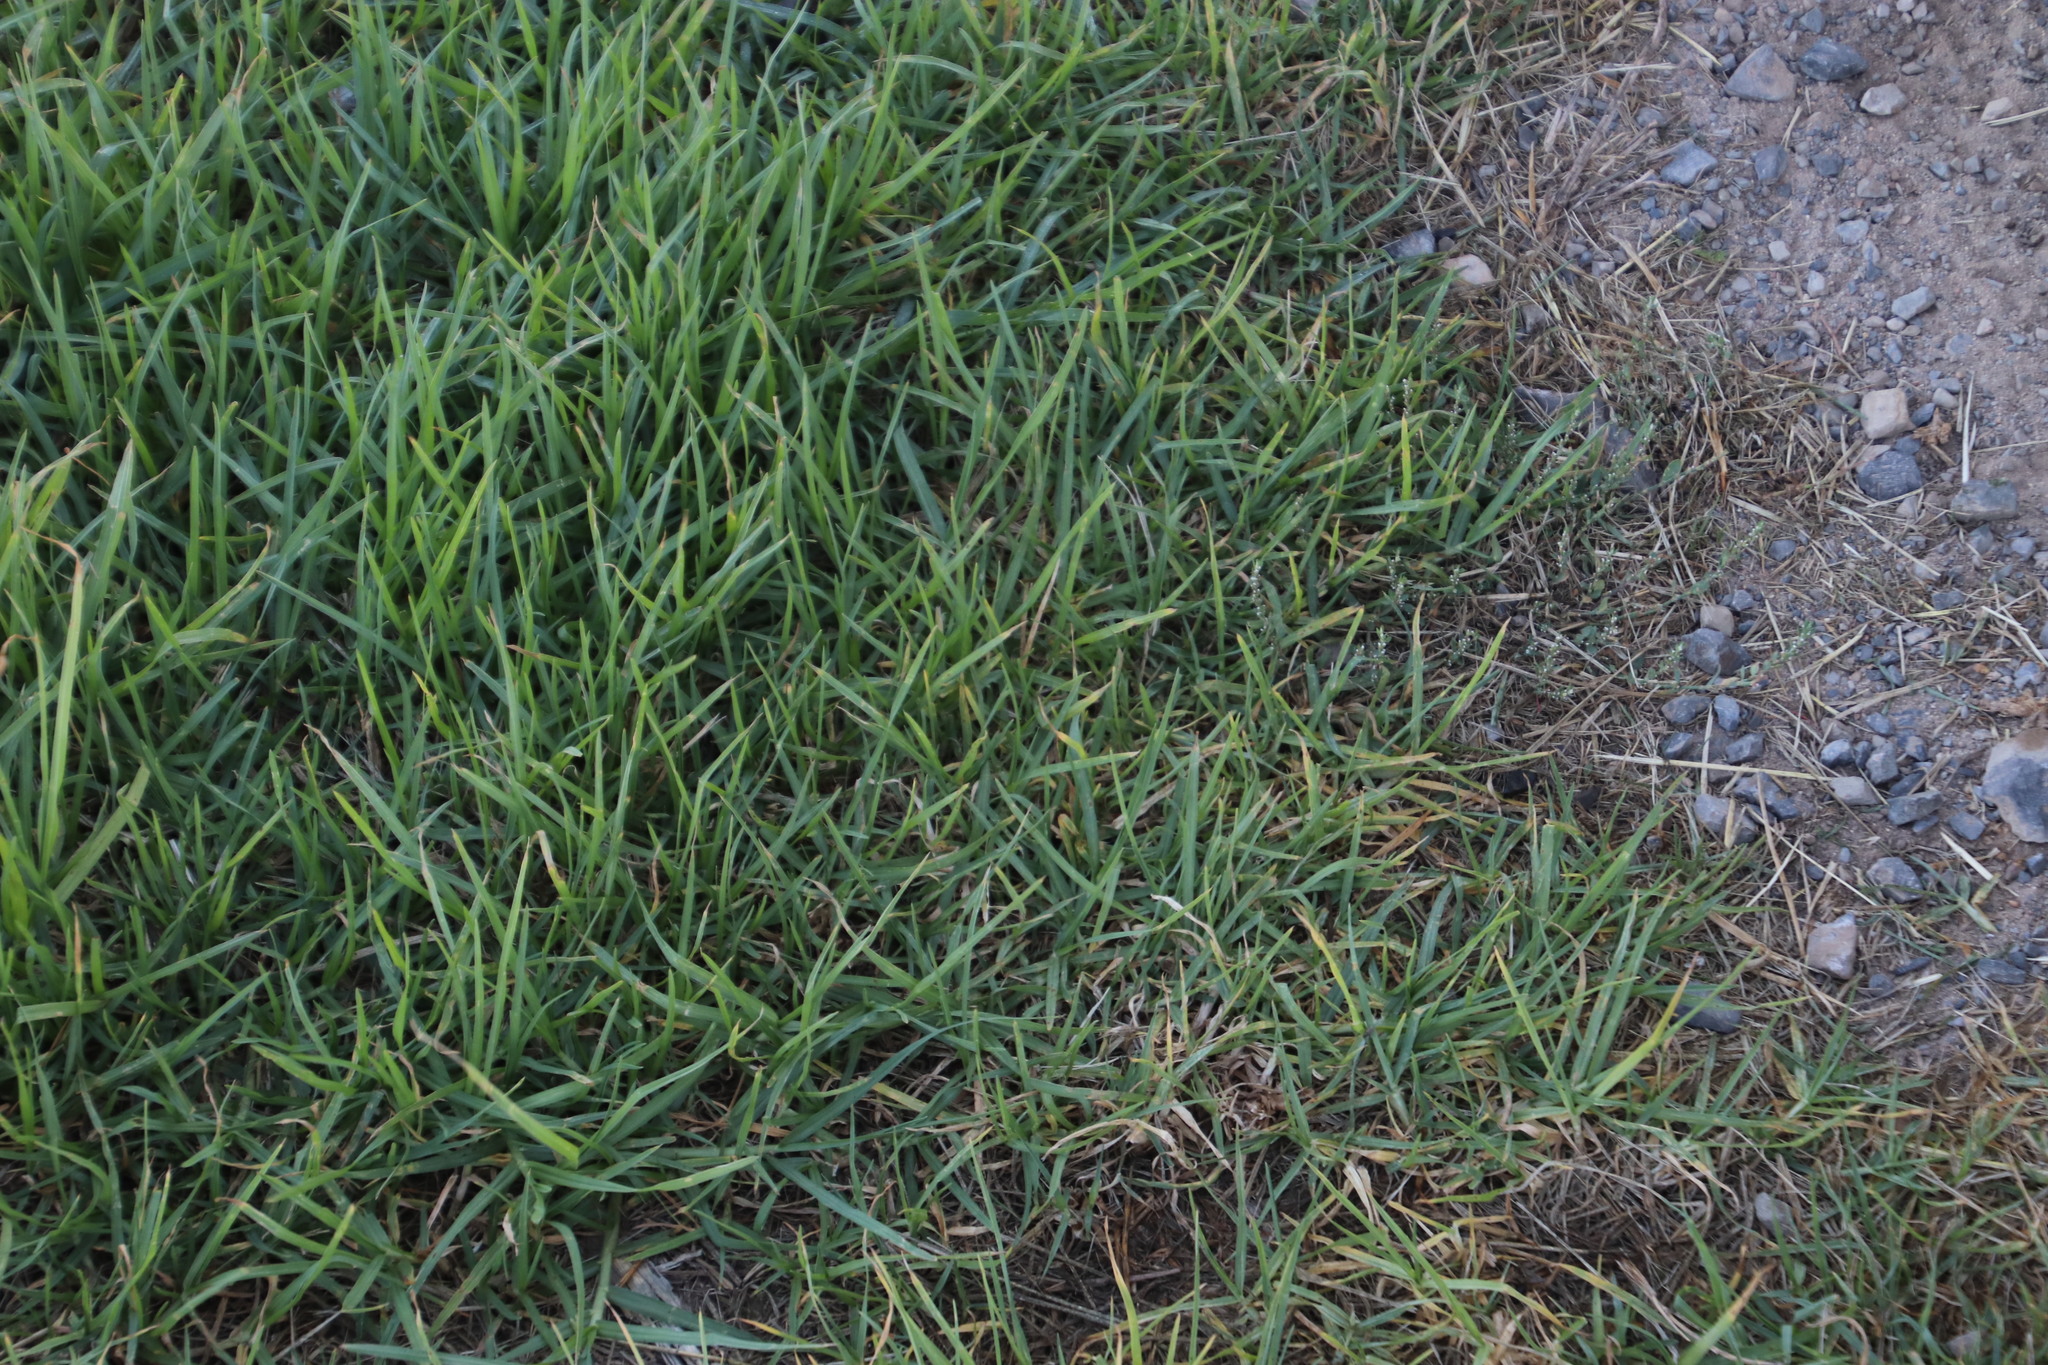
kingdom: Plantae
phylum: Tracheophyta
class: Liliopsida
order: Poales
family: Poaceae
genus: Cenchrus
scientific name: Cenchrus clandestinus
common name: Kikuyugrass
